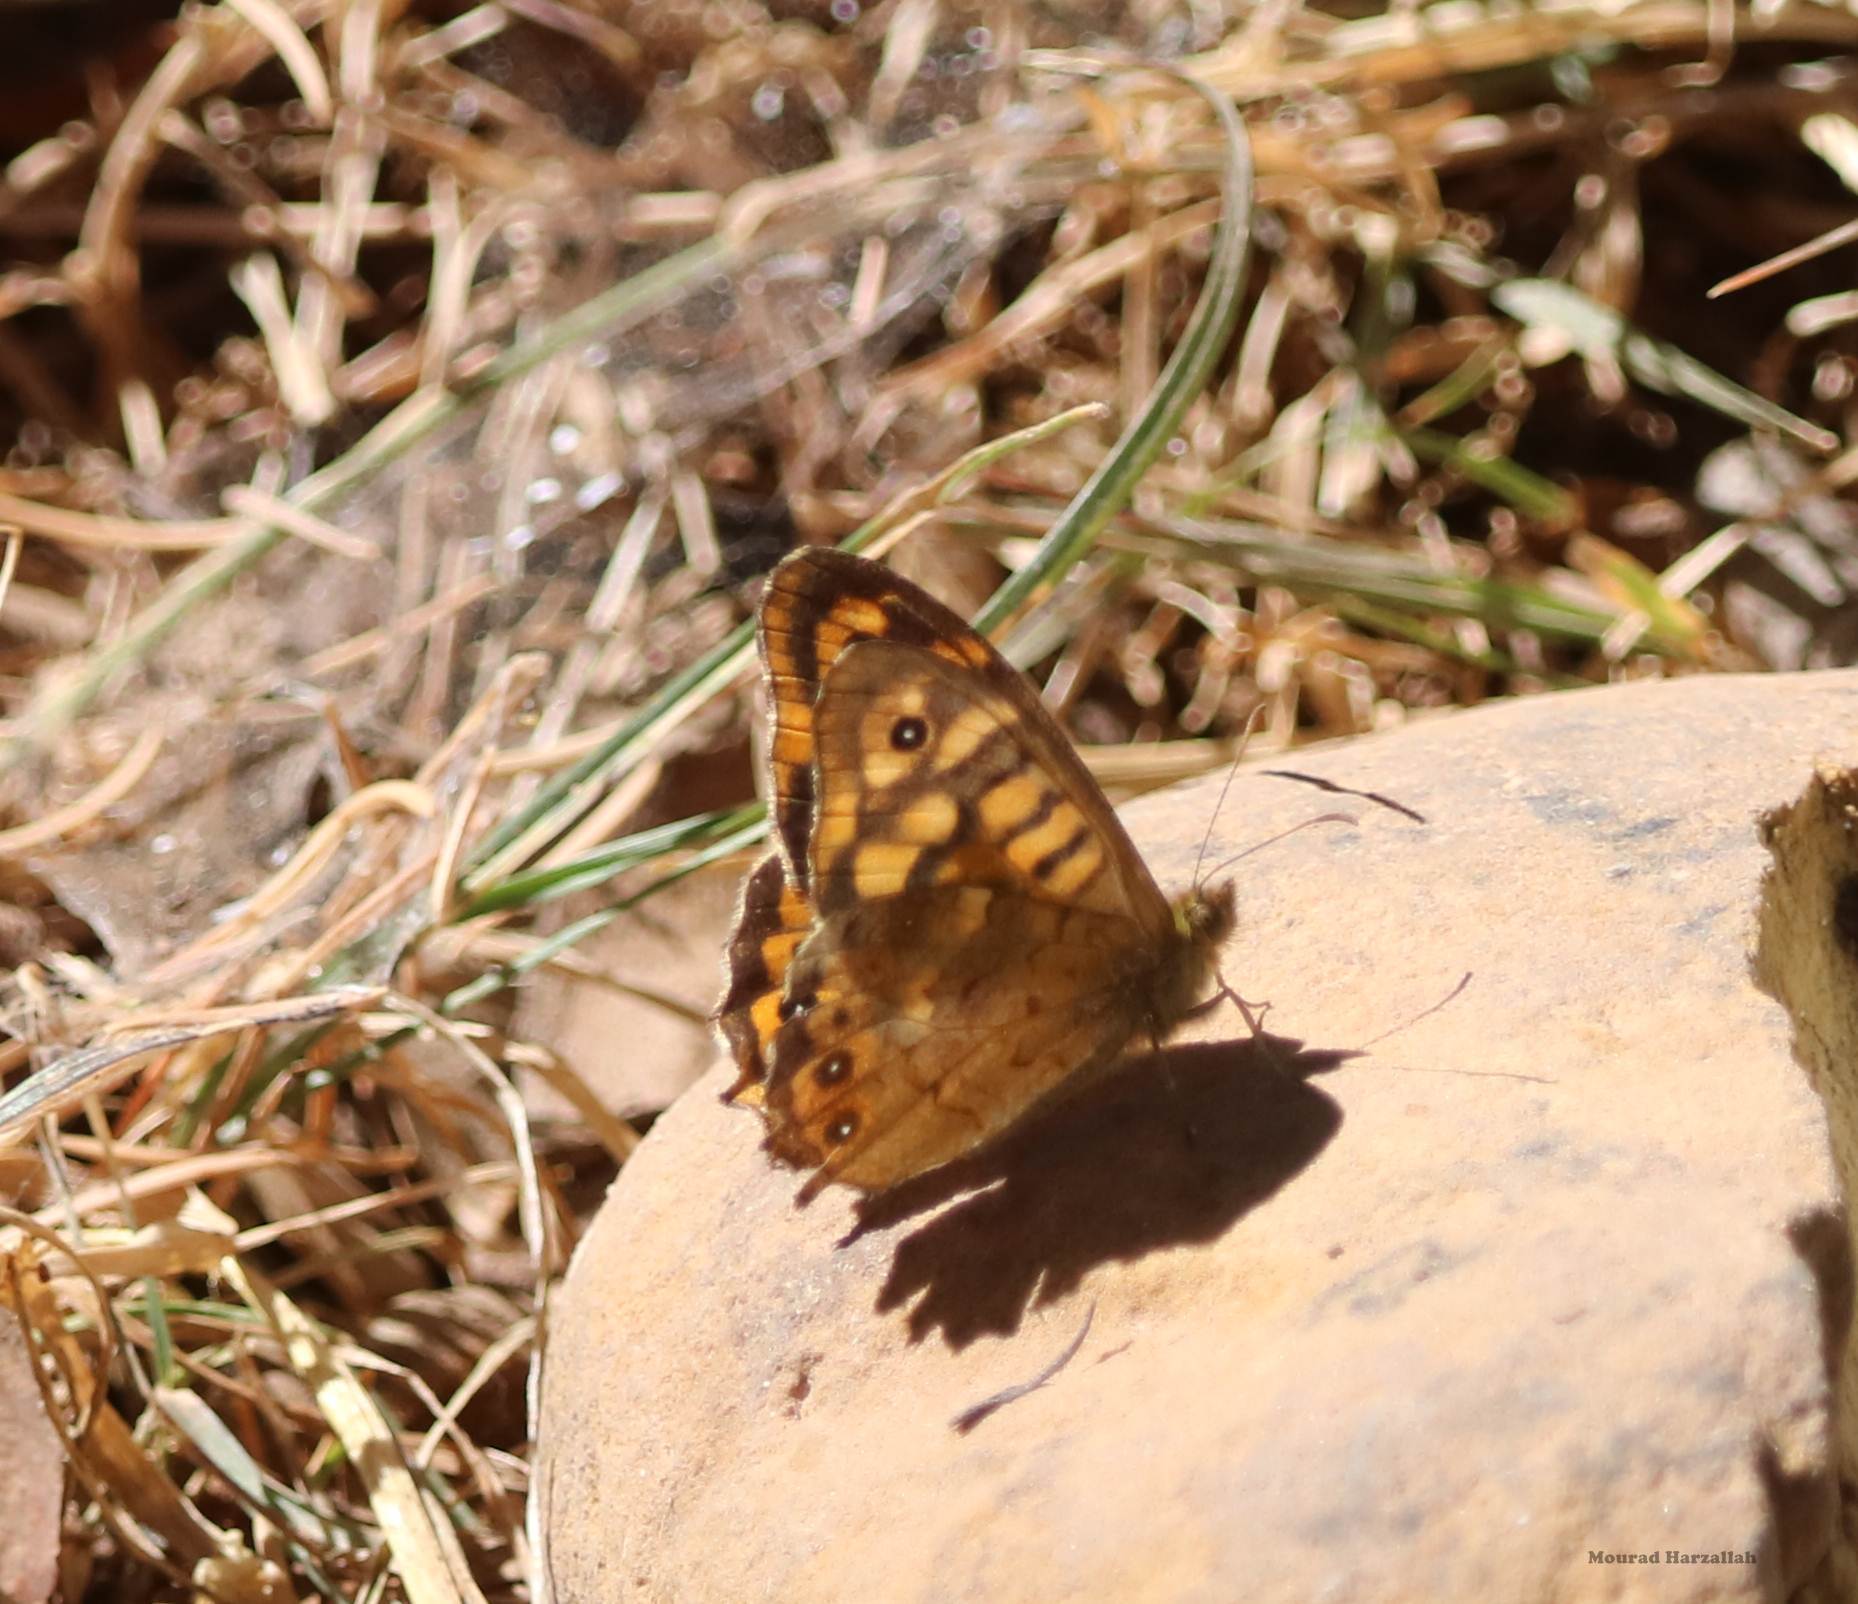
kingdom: Animalia
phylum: Arthropoda
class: Insecta
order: Lepidoptera
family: Nymphalidae
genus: Pararge
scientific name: Pararge aegeria
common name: Speckled wood
